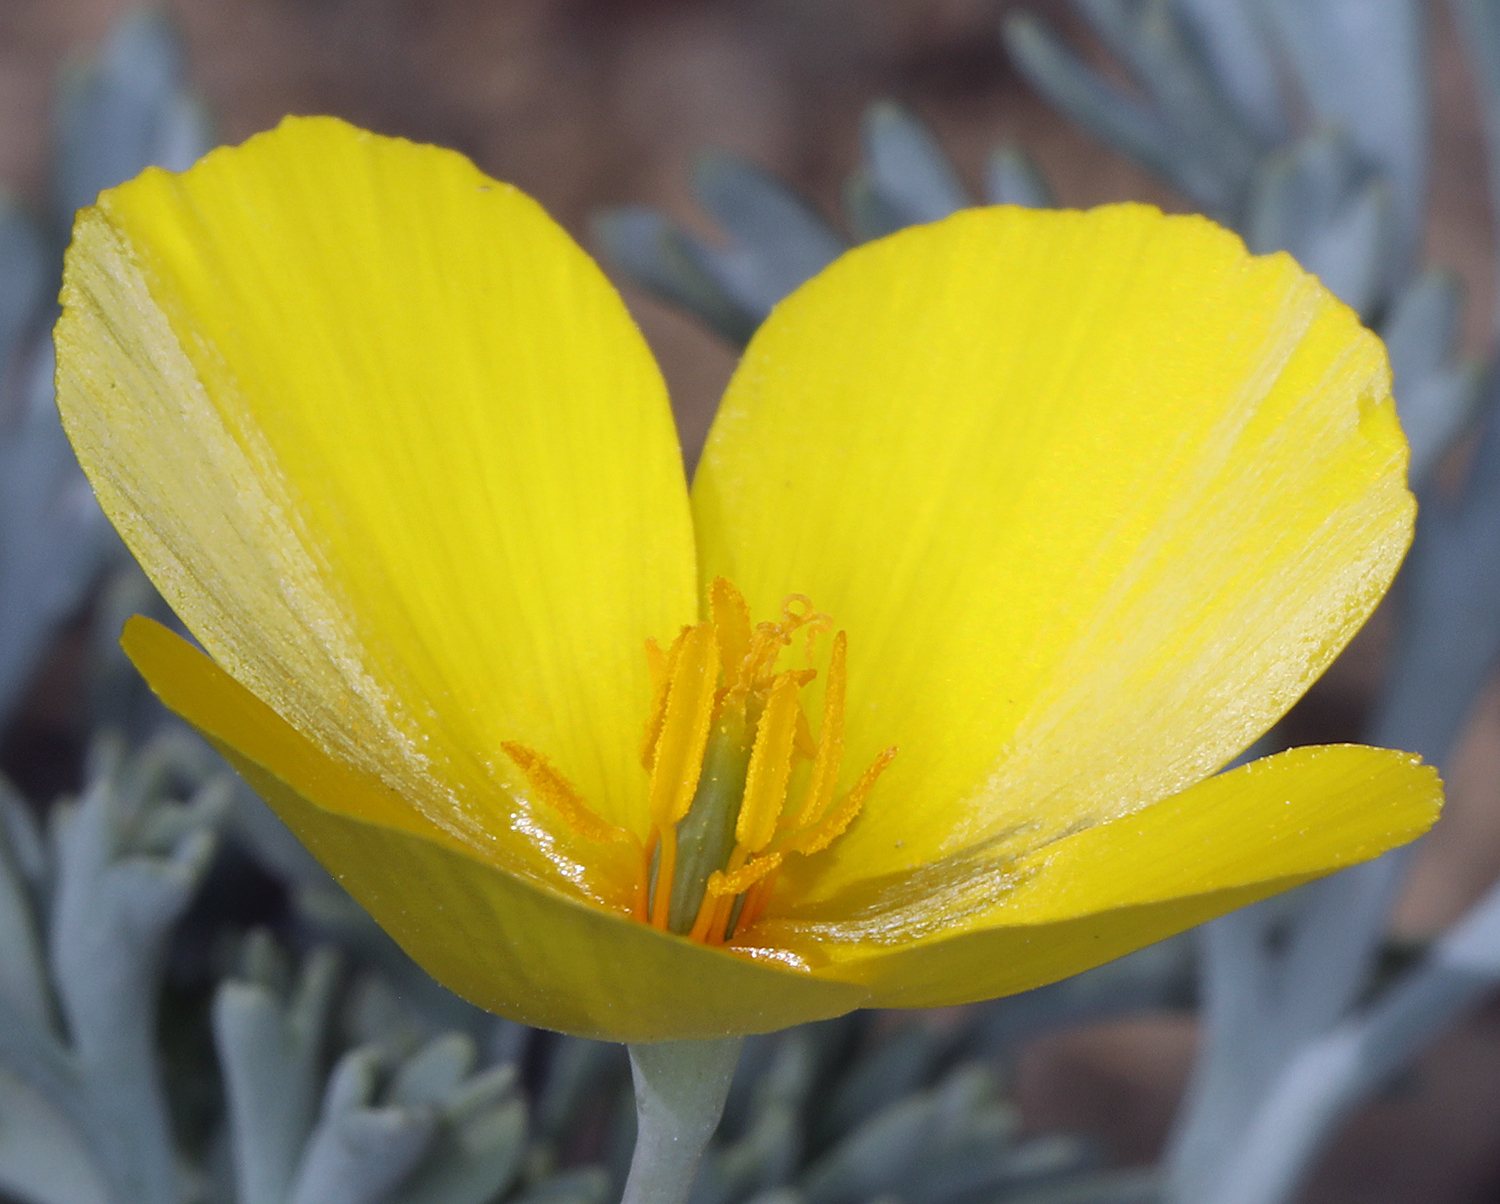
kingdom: Plantae
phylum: Tracheophyta
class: Magnoliopsida
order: Ranunculales
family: Papaveraceae
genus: Eschscholzia
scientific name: Eschscholzia minutiflora
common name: Small-flower california-poppy
